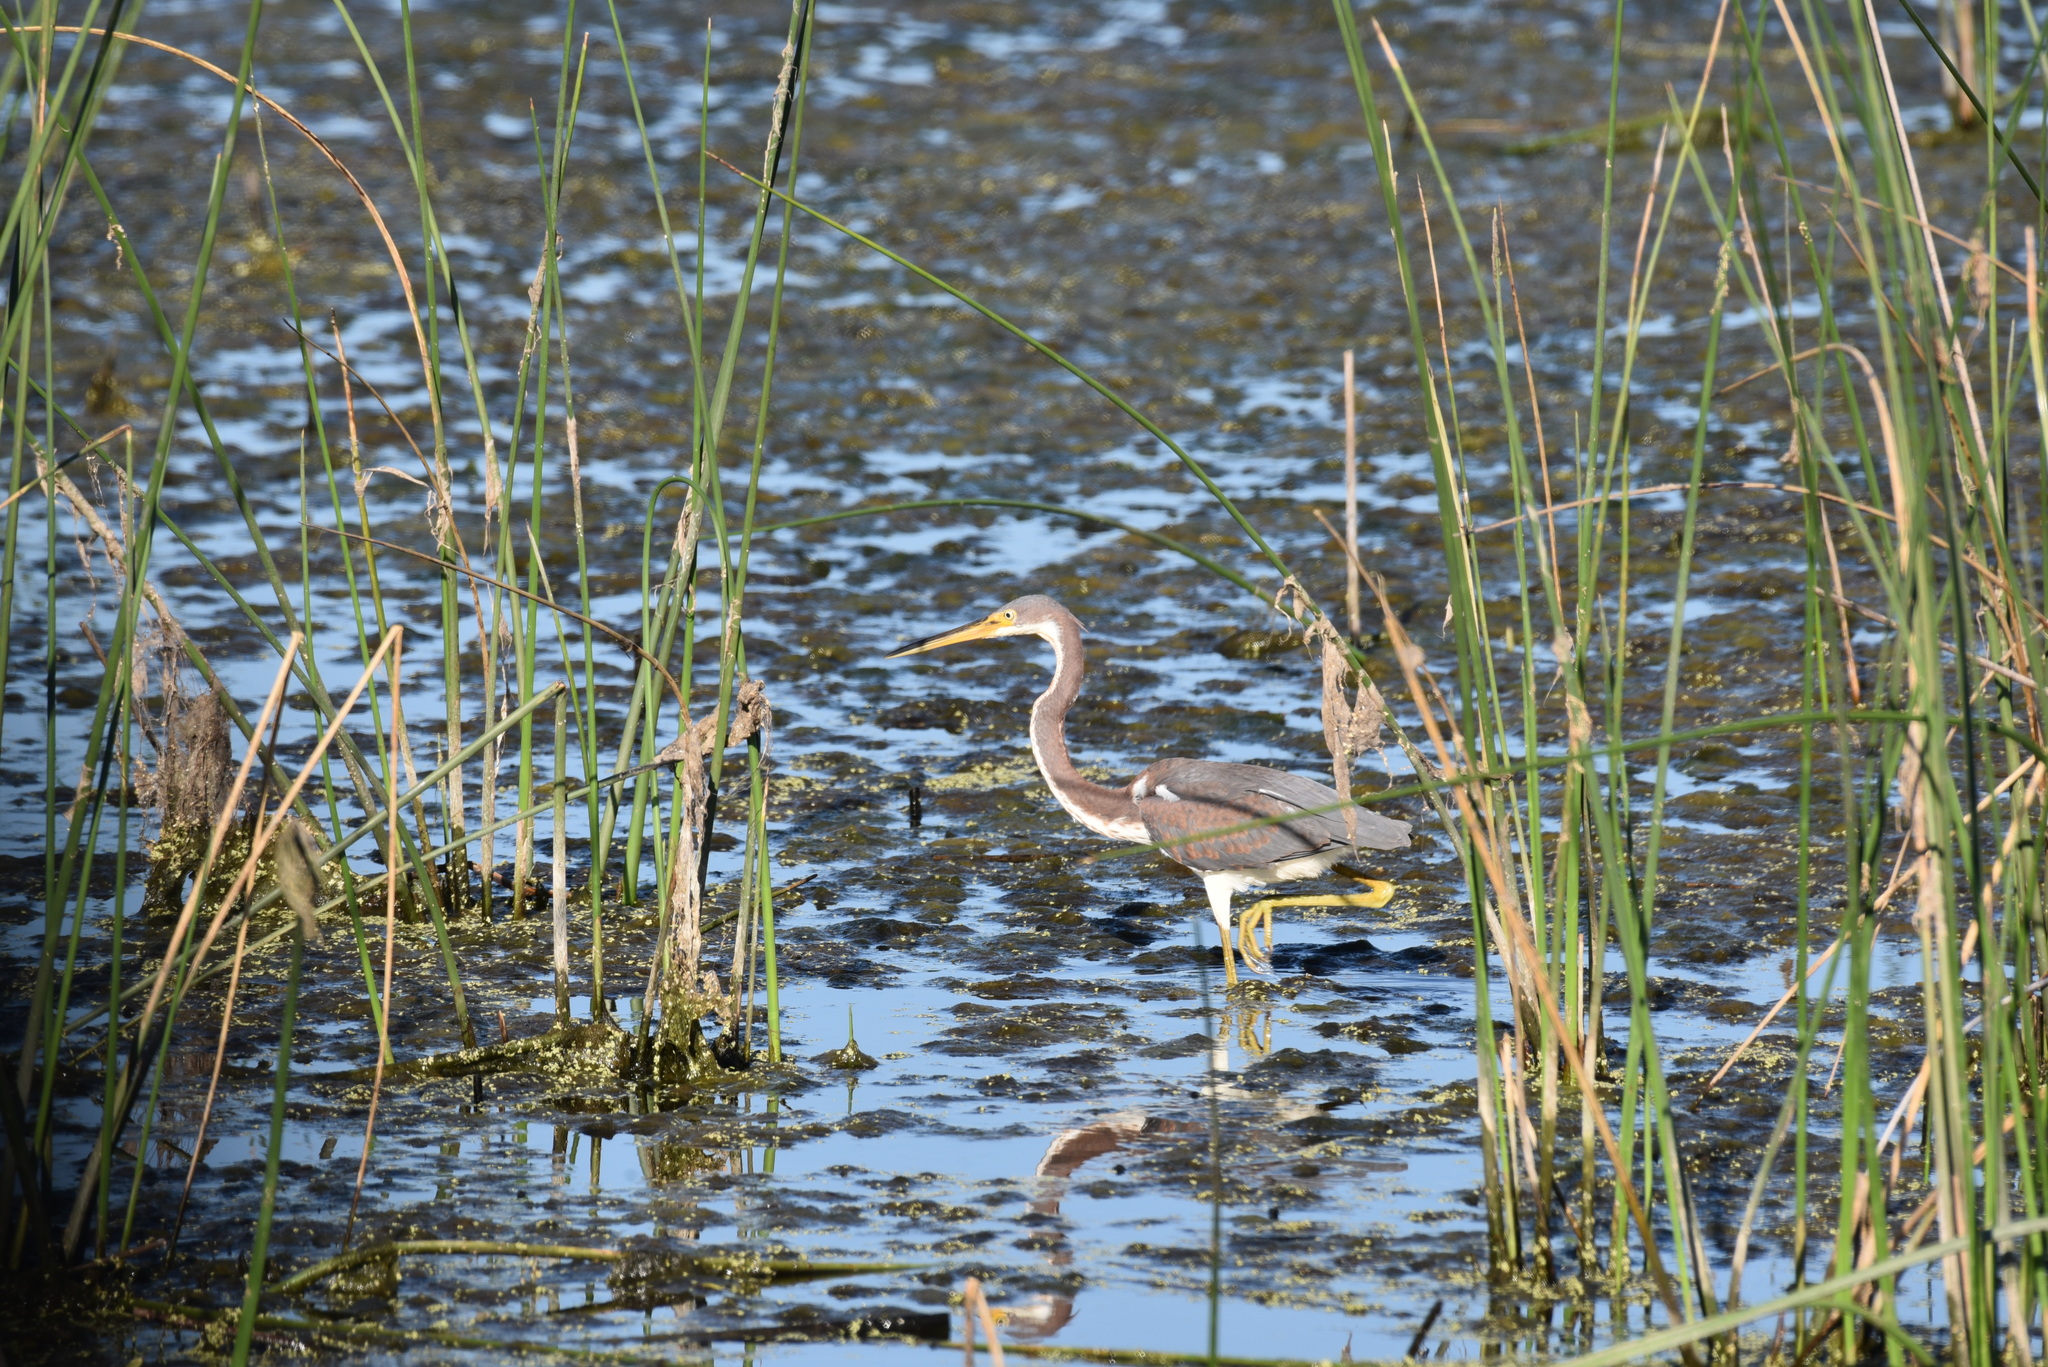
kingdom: Animalia
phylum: Chordata
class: Aves
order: Pelecaniformes
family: Ardeidae
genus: Egretta
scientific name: Egretta tricolor
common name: Tricolored heron
